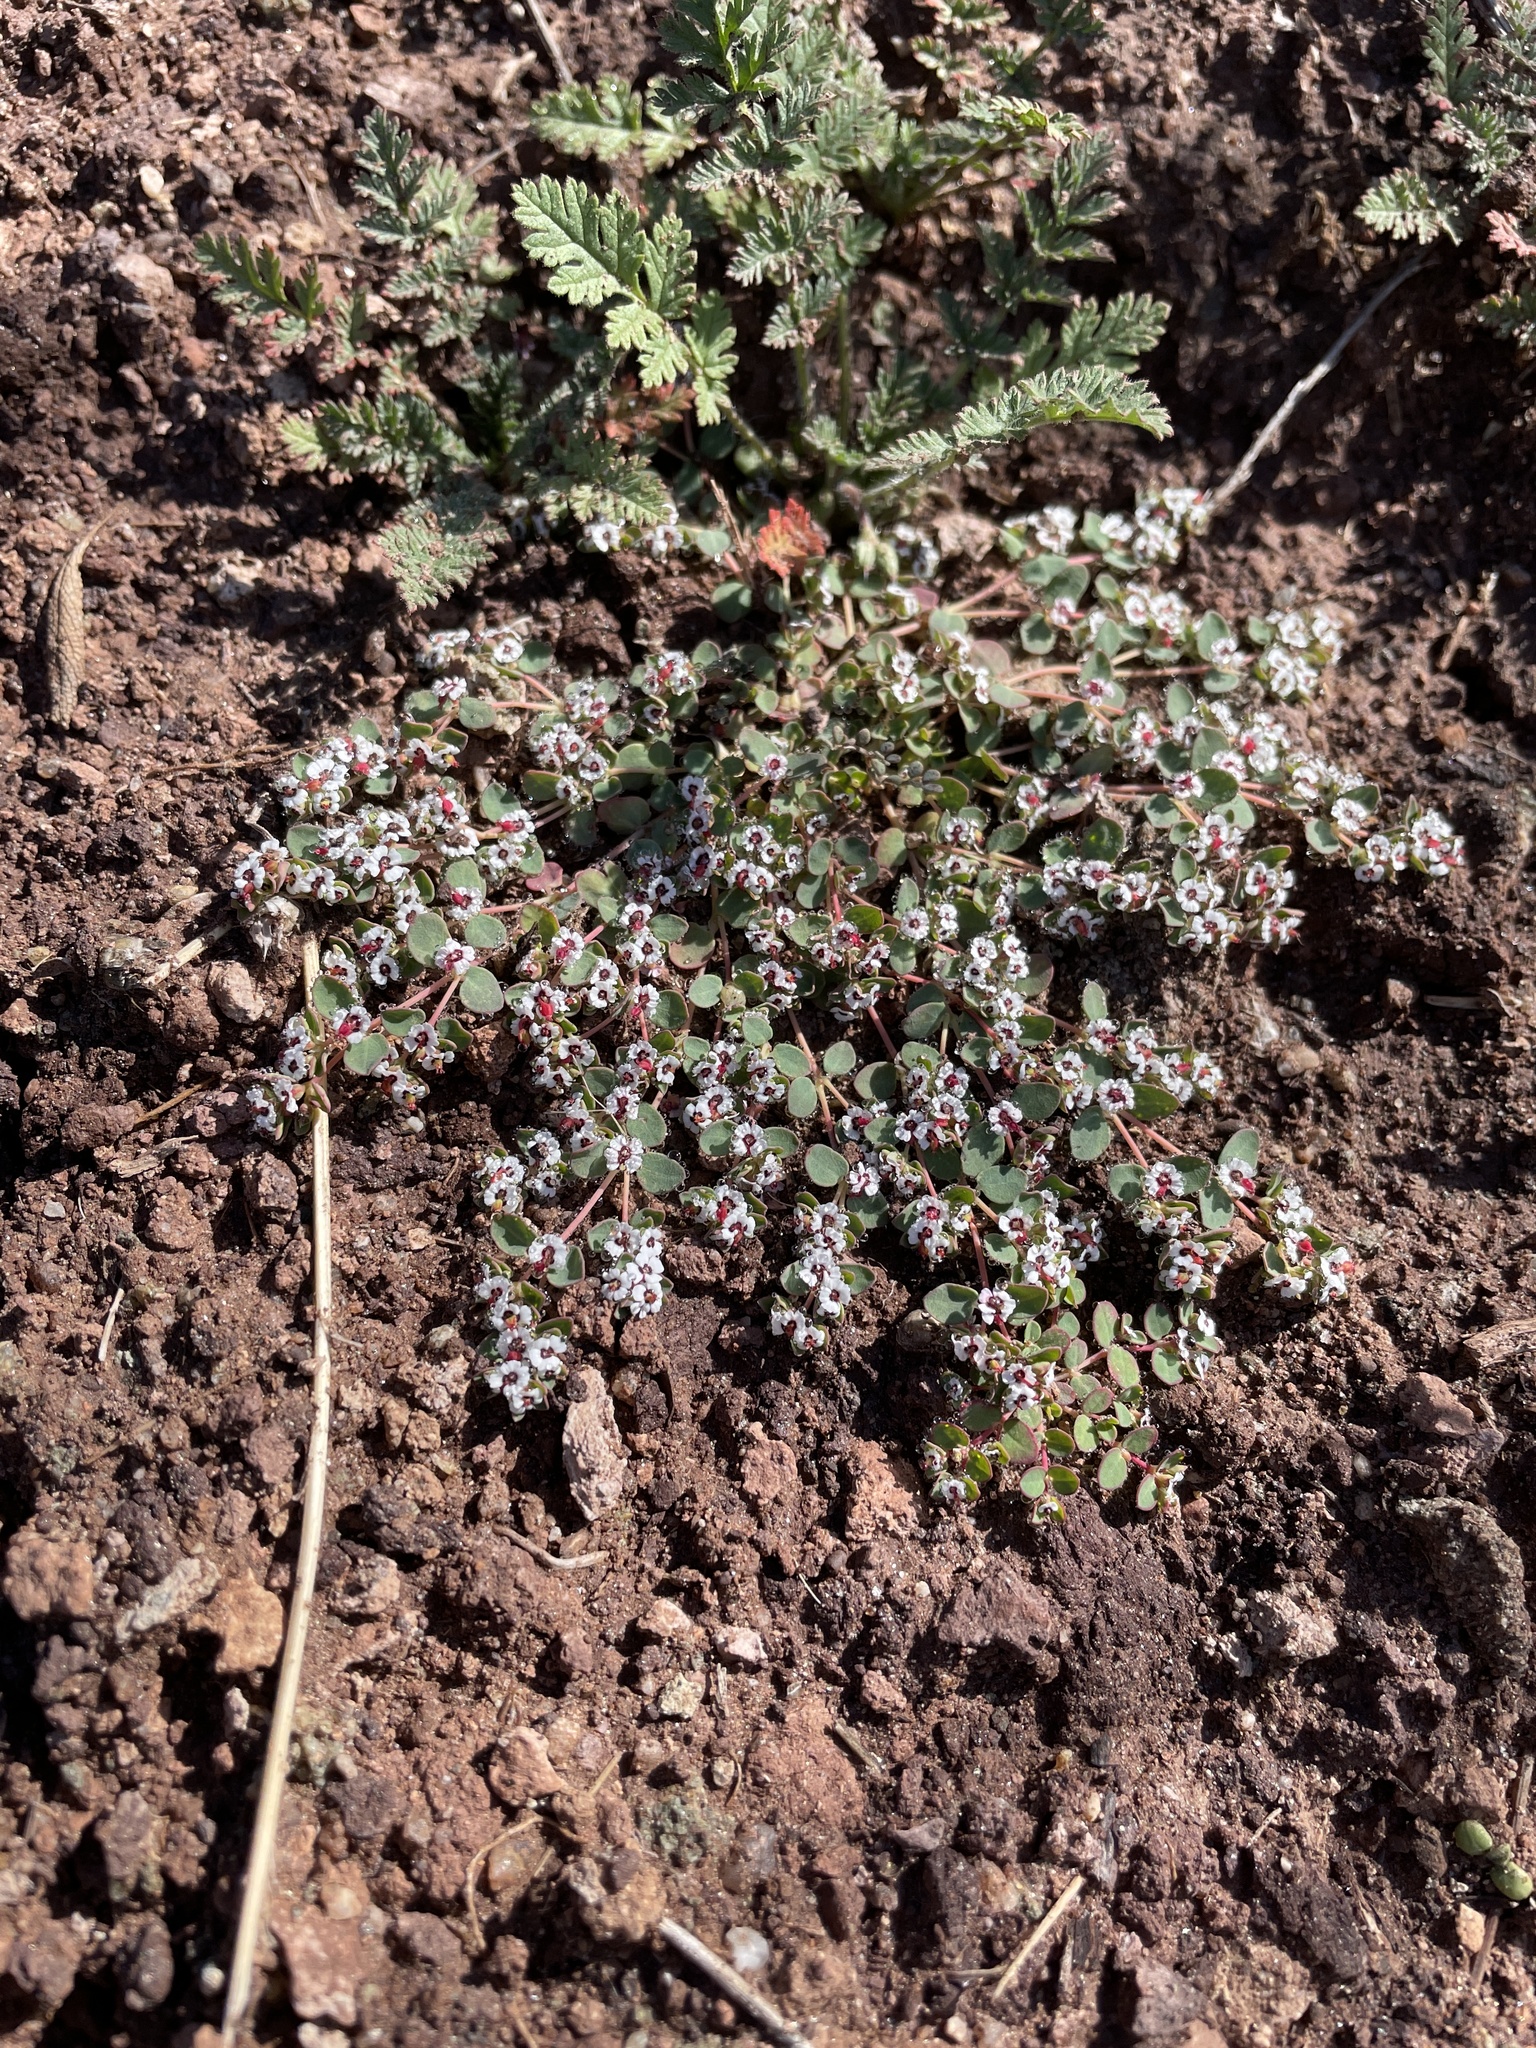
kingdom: Plantae
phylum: Tracheophyta
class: Magnoliopsida
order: Malpighiales
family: Euphorbiaceae
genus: Euphorbia
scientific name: Euphorbia polycarpa
